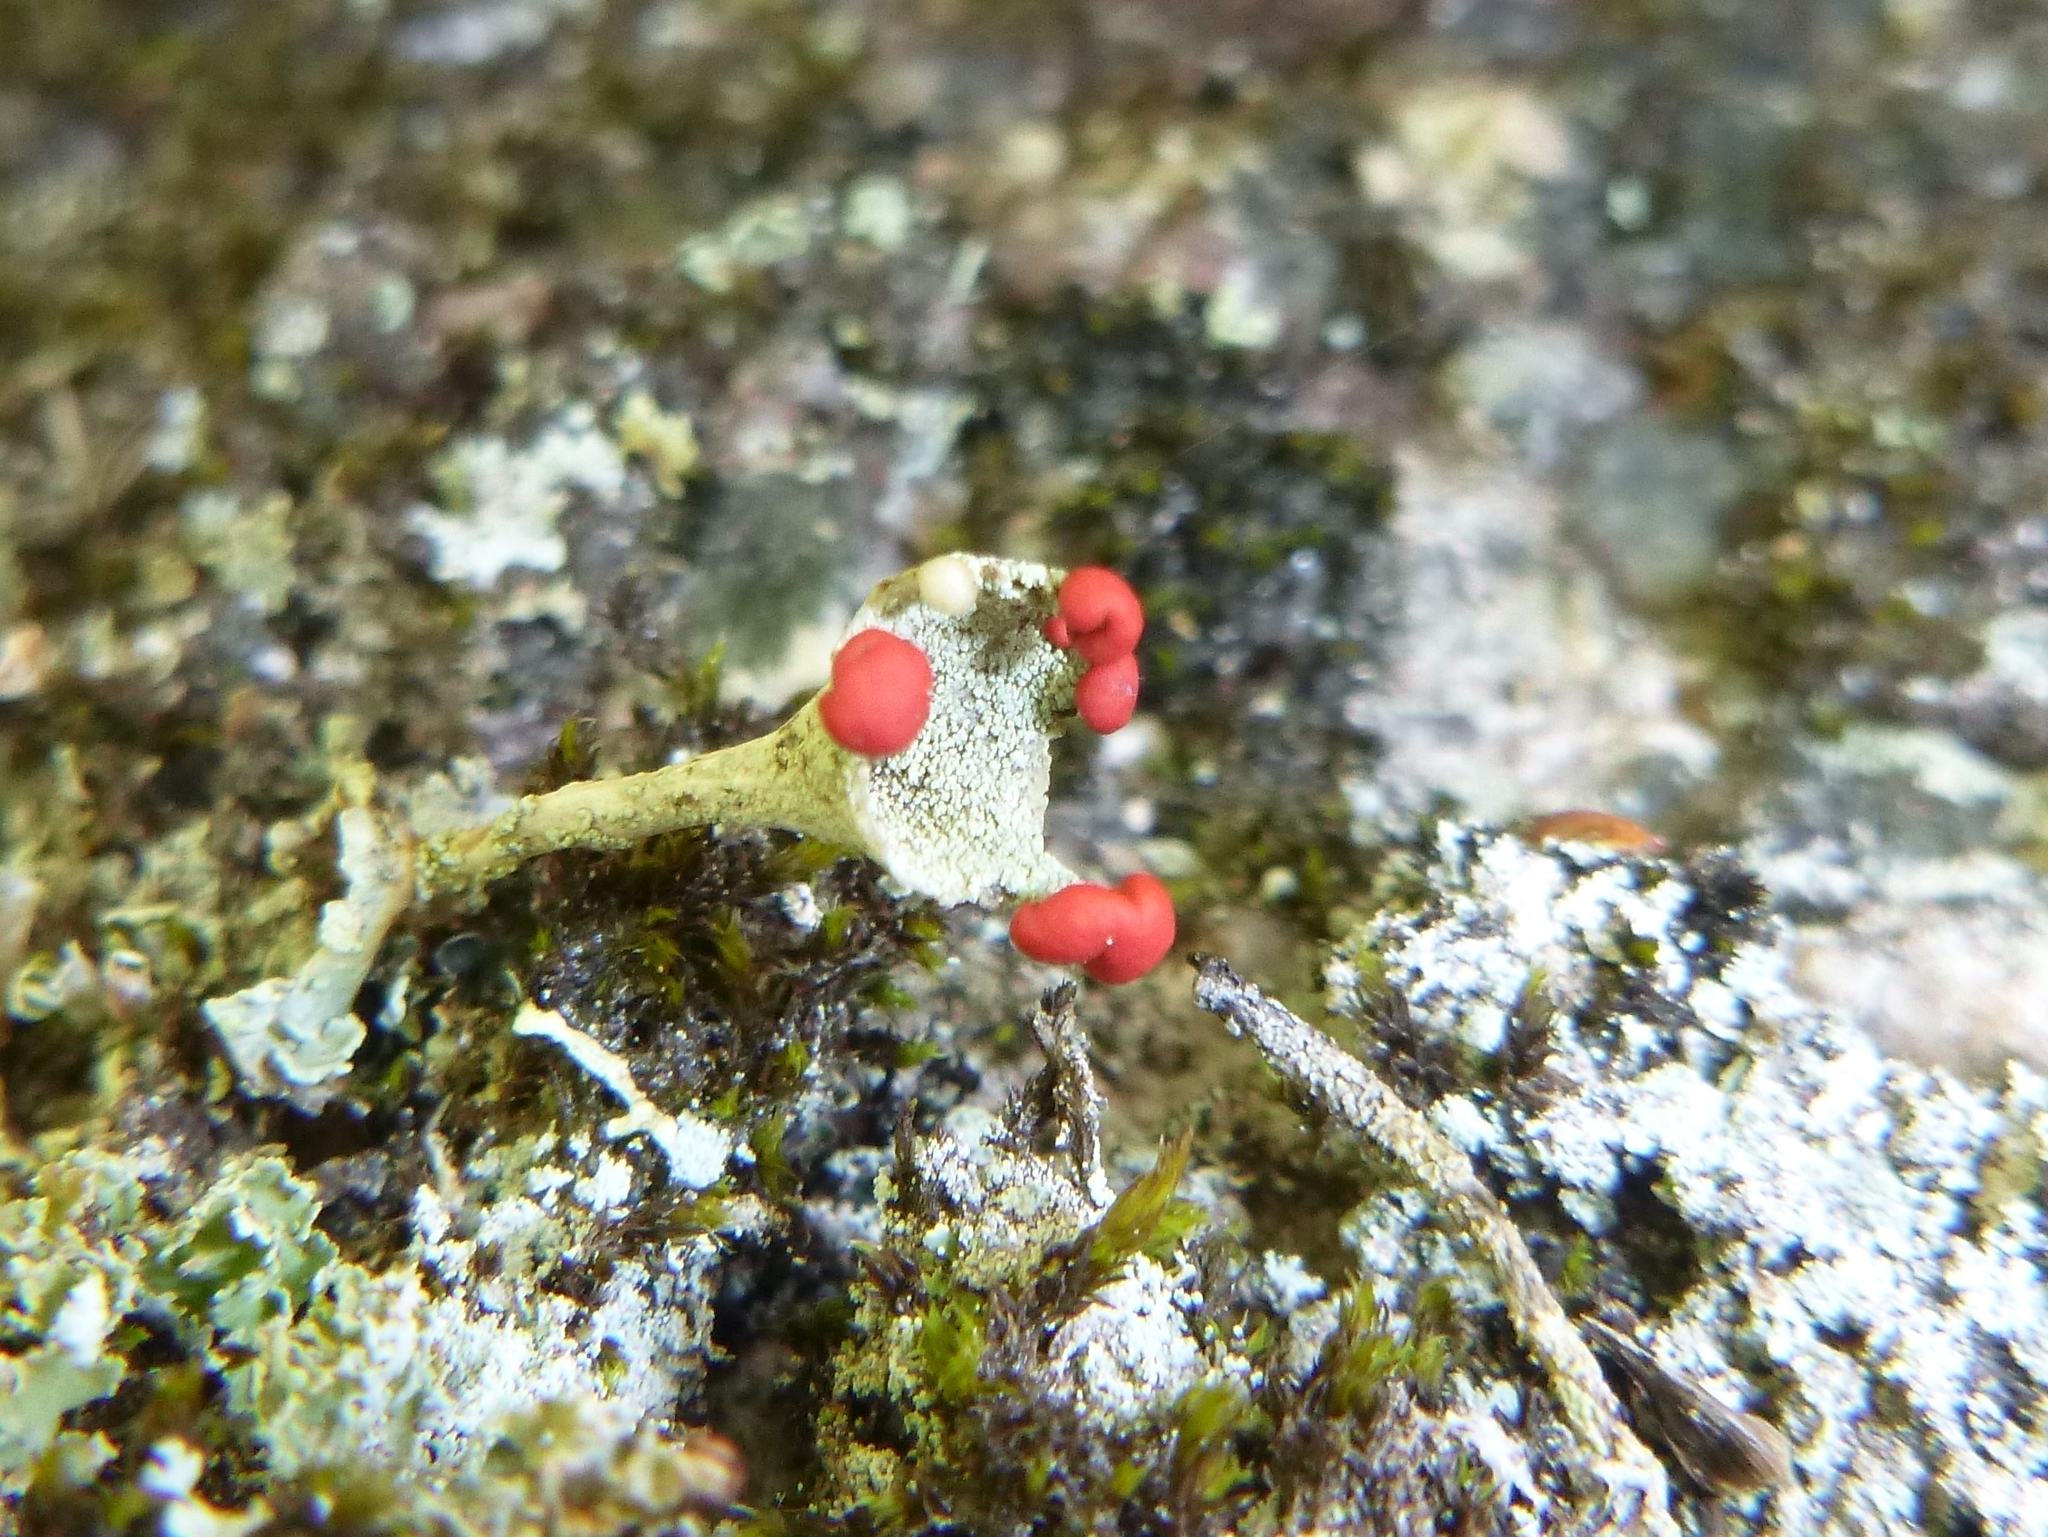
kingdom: Fungi
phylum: Ascomycota
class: Lecanoromycetes
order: Lecanorales
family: Cladoniaceae
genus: Cladonia
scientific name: Cladonia cristatella
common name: British soldier lichen
